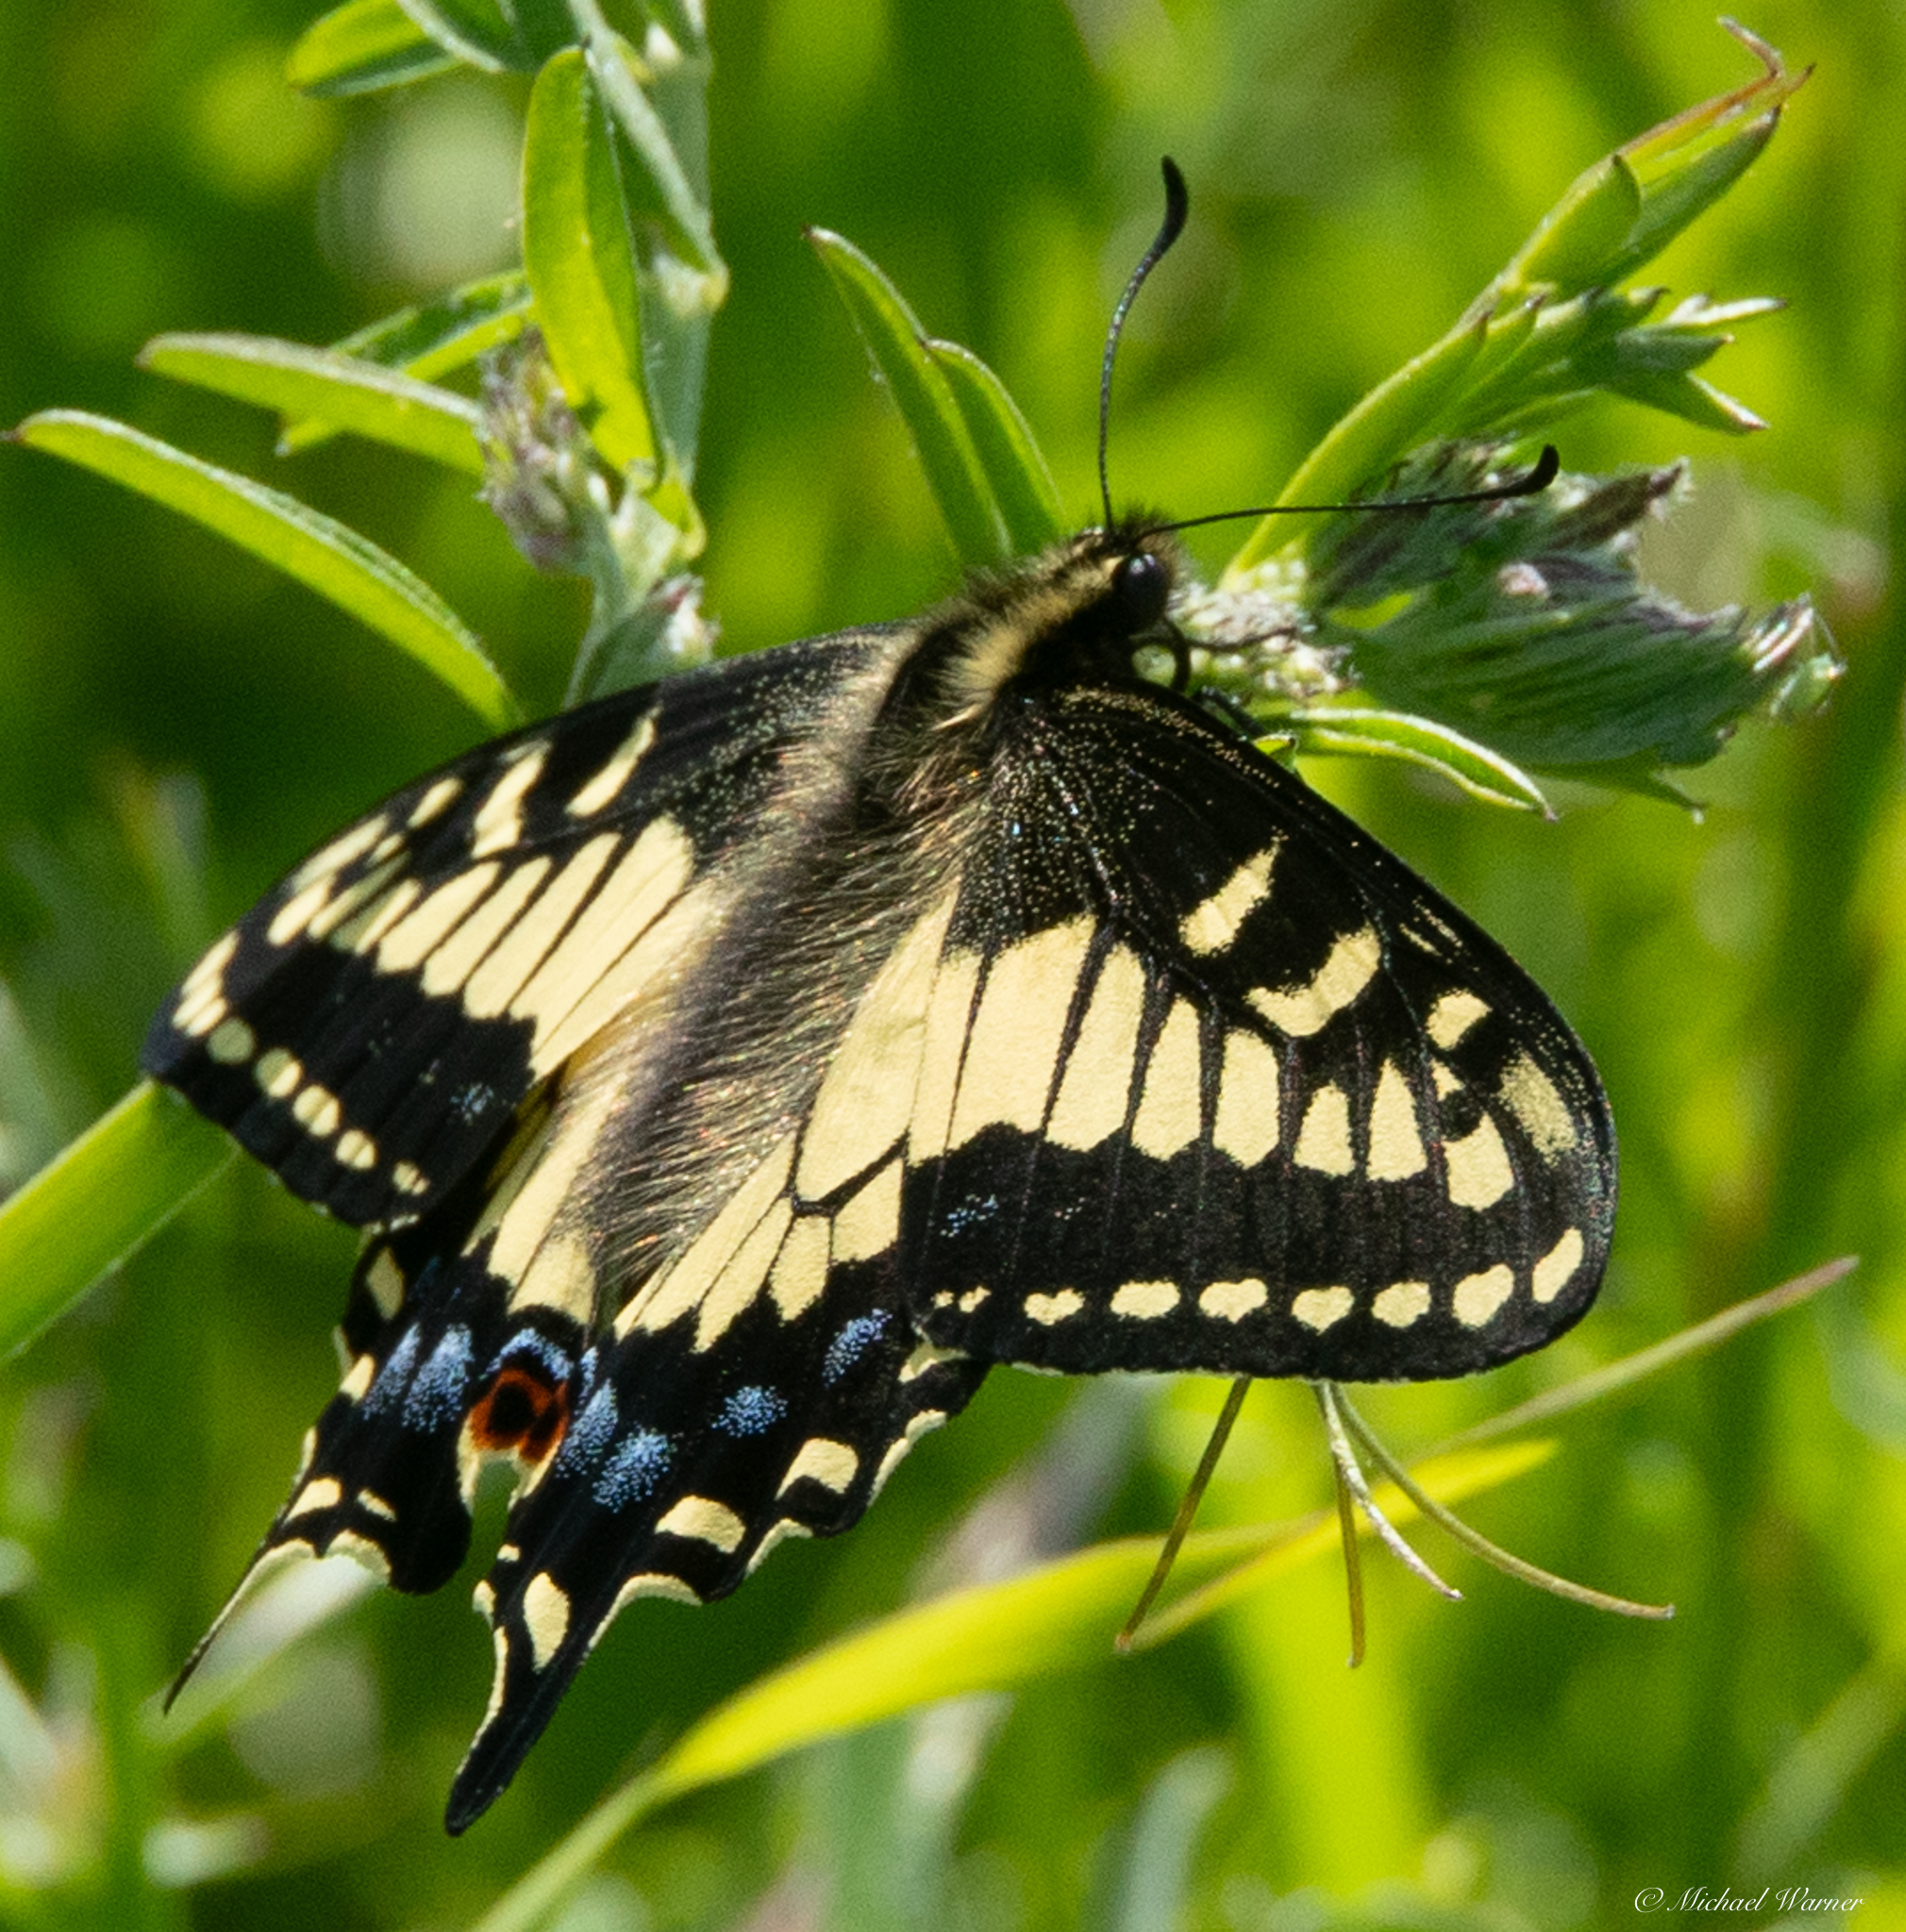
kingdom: Animalia
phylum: Arthropoda
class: Insecta
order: Lepidoptera
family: Papilionidae
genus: Papilio
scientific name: Papilio zelicaon
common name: Anise swallowtail
